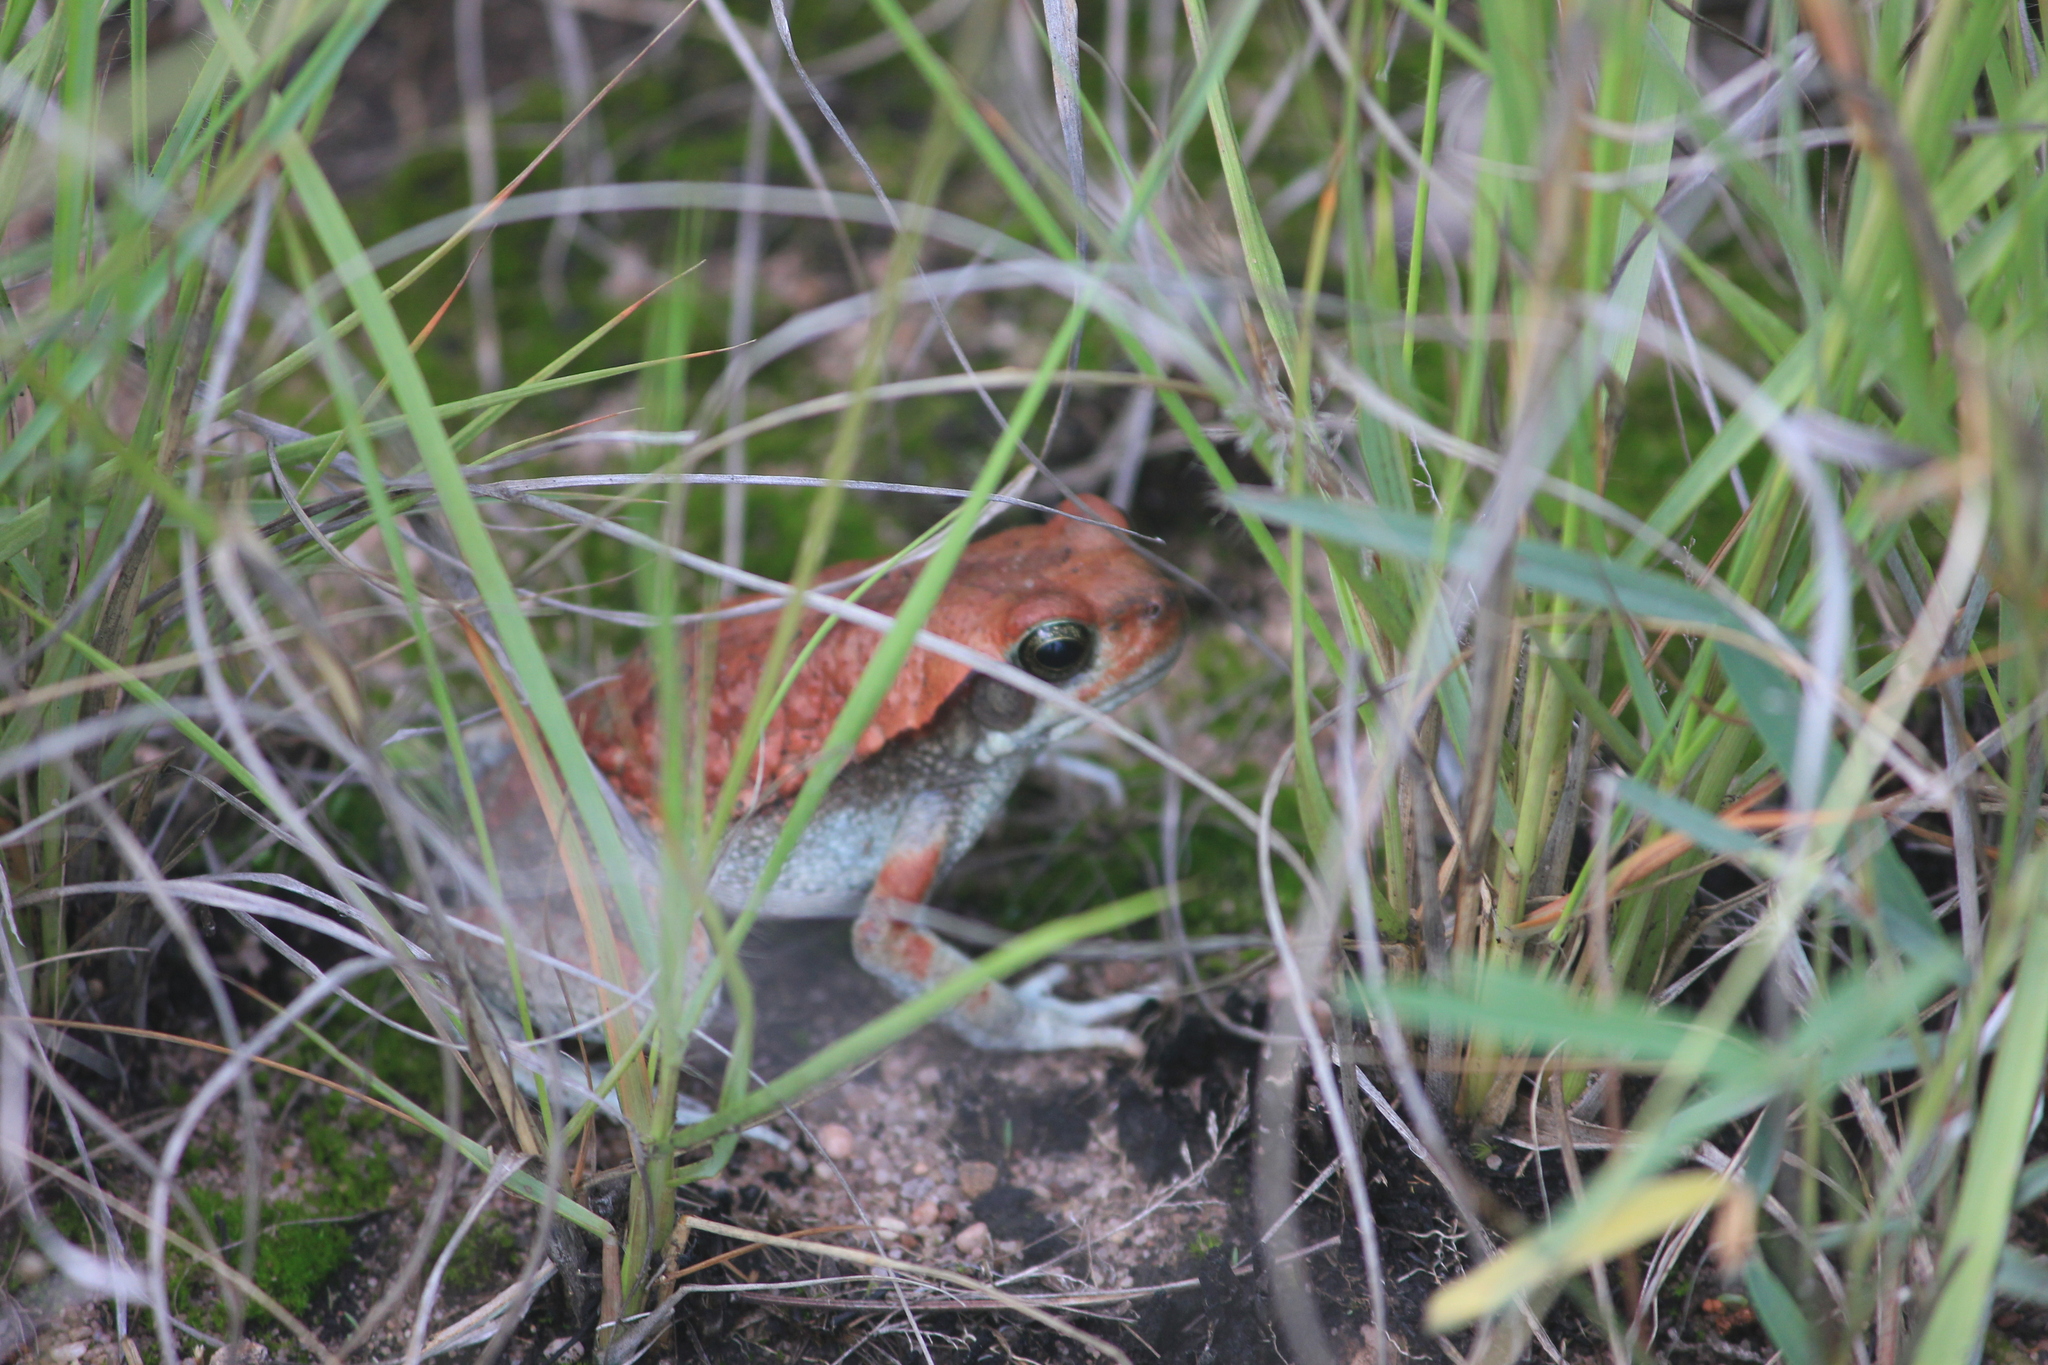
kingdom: Animalia
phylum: Chordata
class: Amphibia
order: Anura
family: Bufonidae
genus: Schismaderma
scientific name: Schismaderma carens
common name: African split-skin toad
